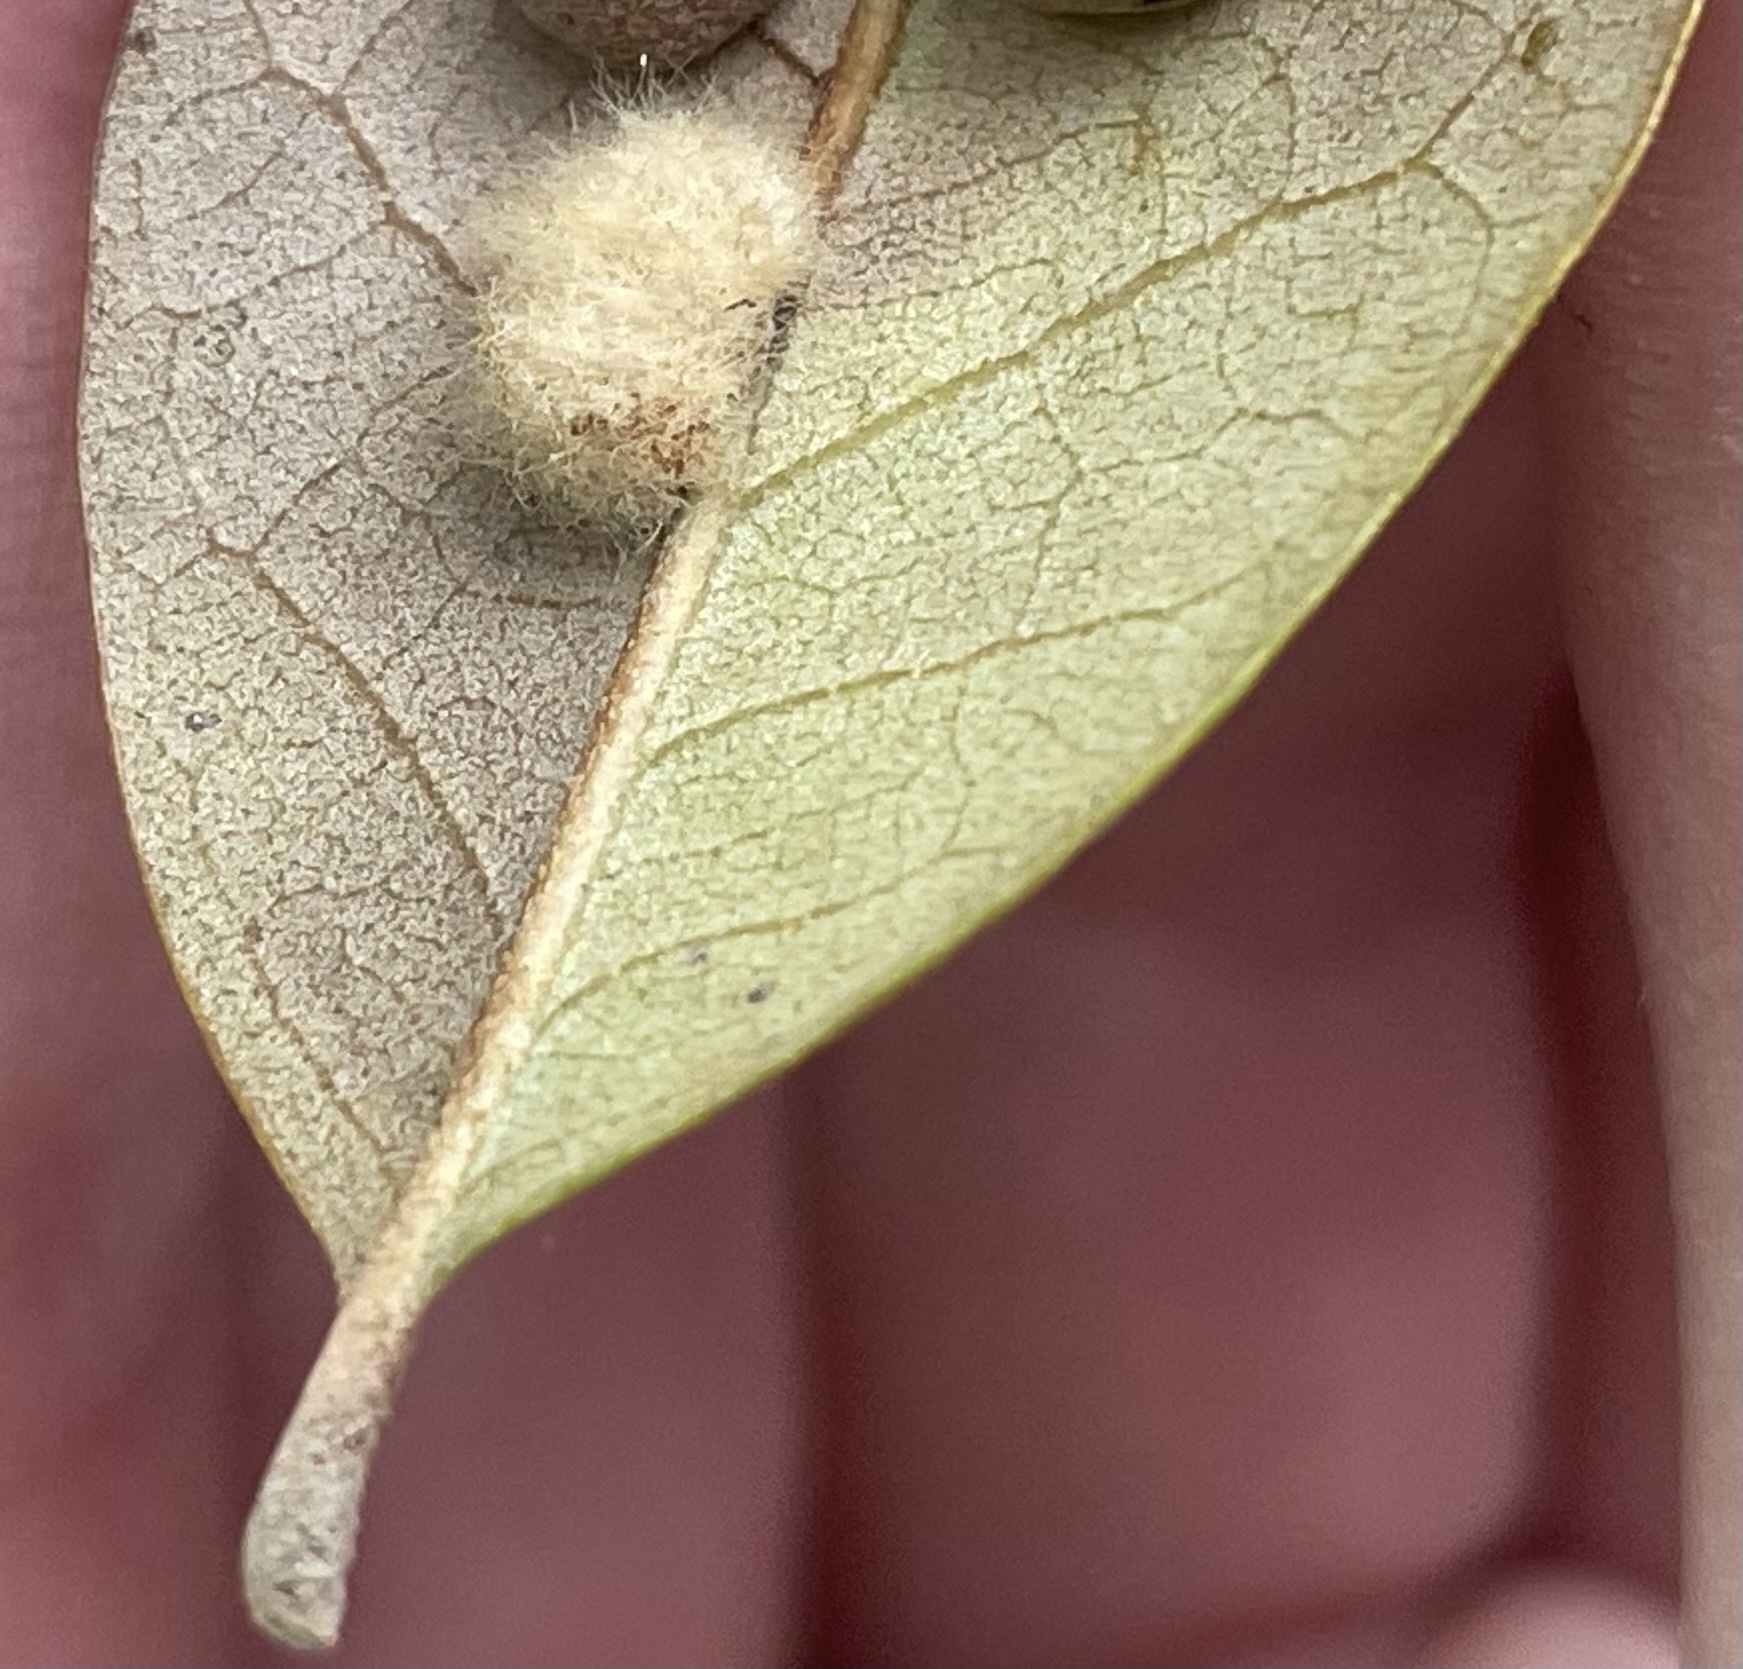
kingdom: Animalia
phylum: Arthropoda
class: Insecta
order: Hymenoptera
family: Cynipidae
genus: Andricus
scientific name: Andricus Druon quercuslanigerum
